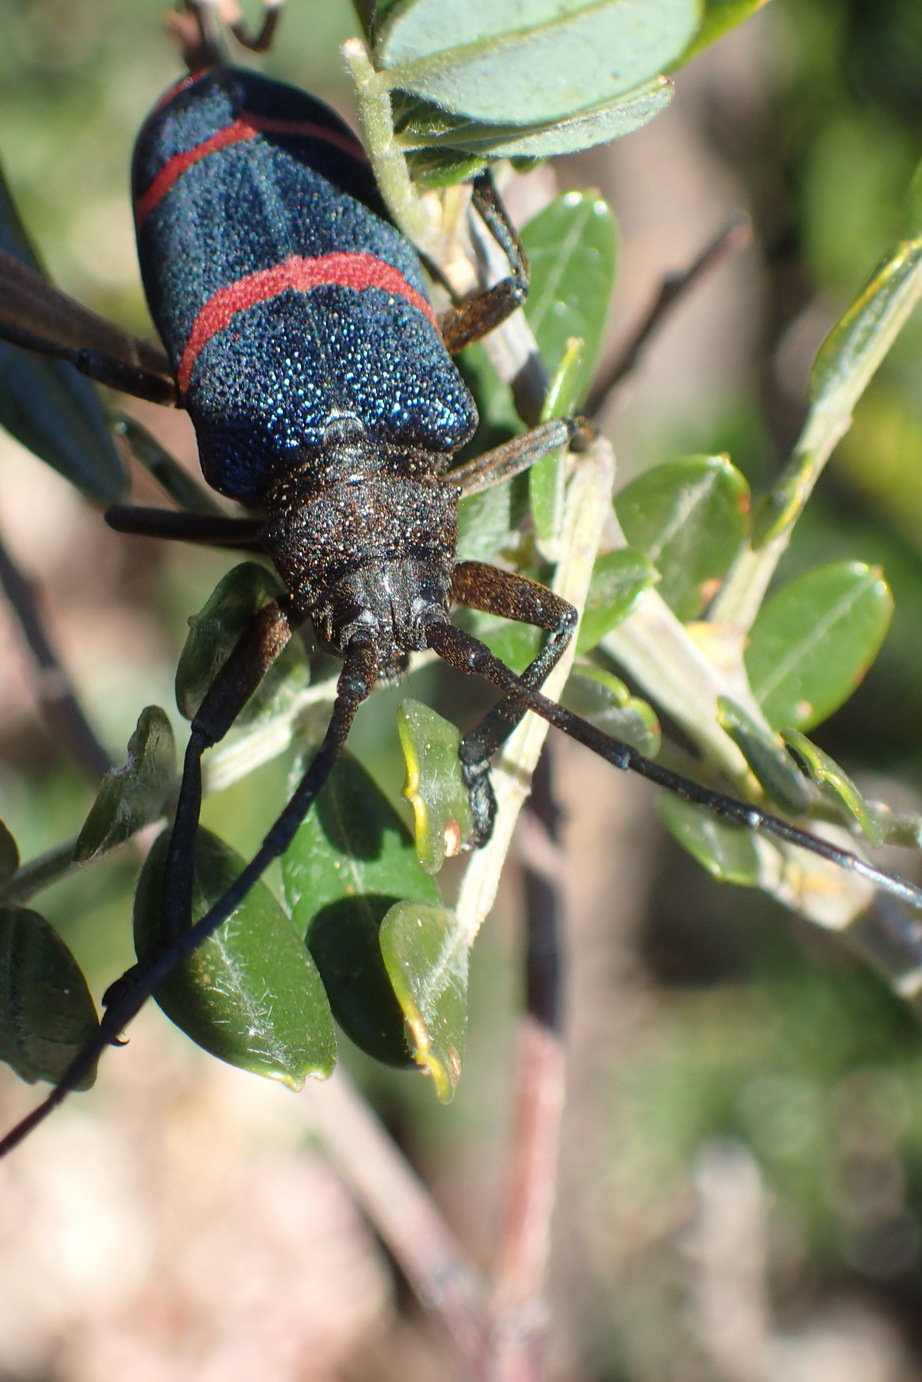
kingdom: Animalia
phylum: Arthropoda
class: Insecta
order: Coleoptera
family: Cerambycidae
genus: Ceroplesis
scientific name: Ceroplesis sumptuosa
